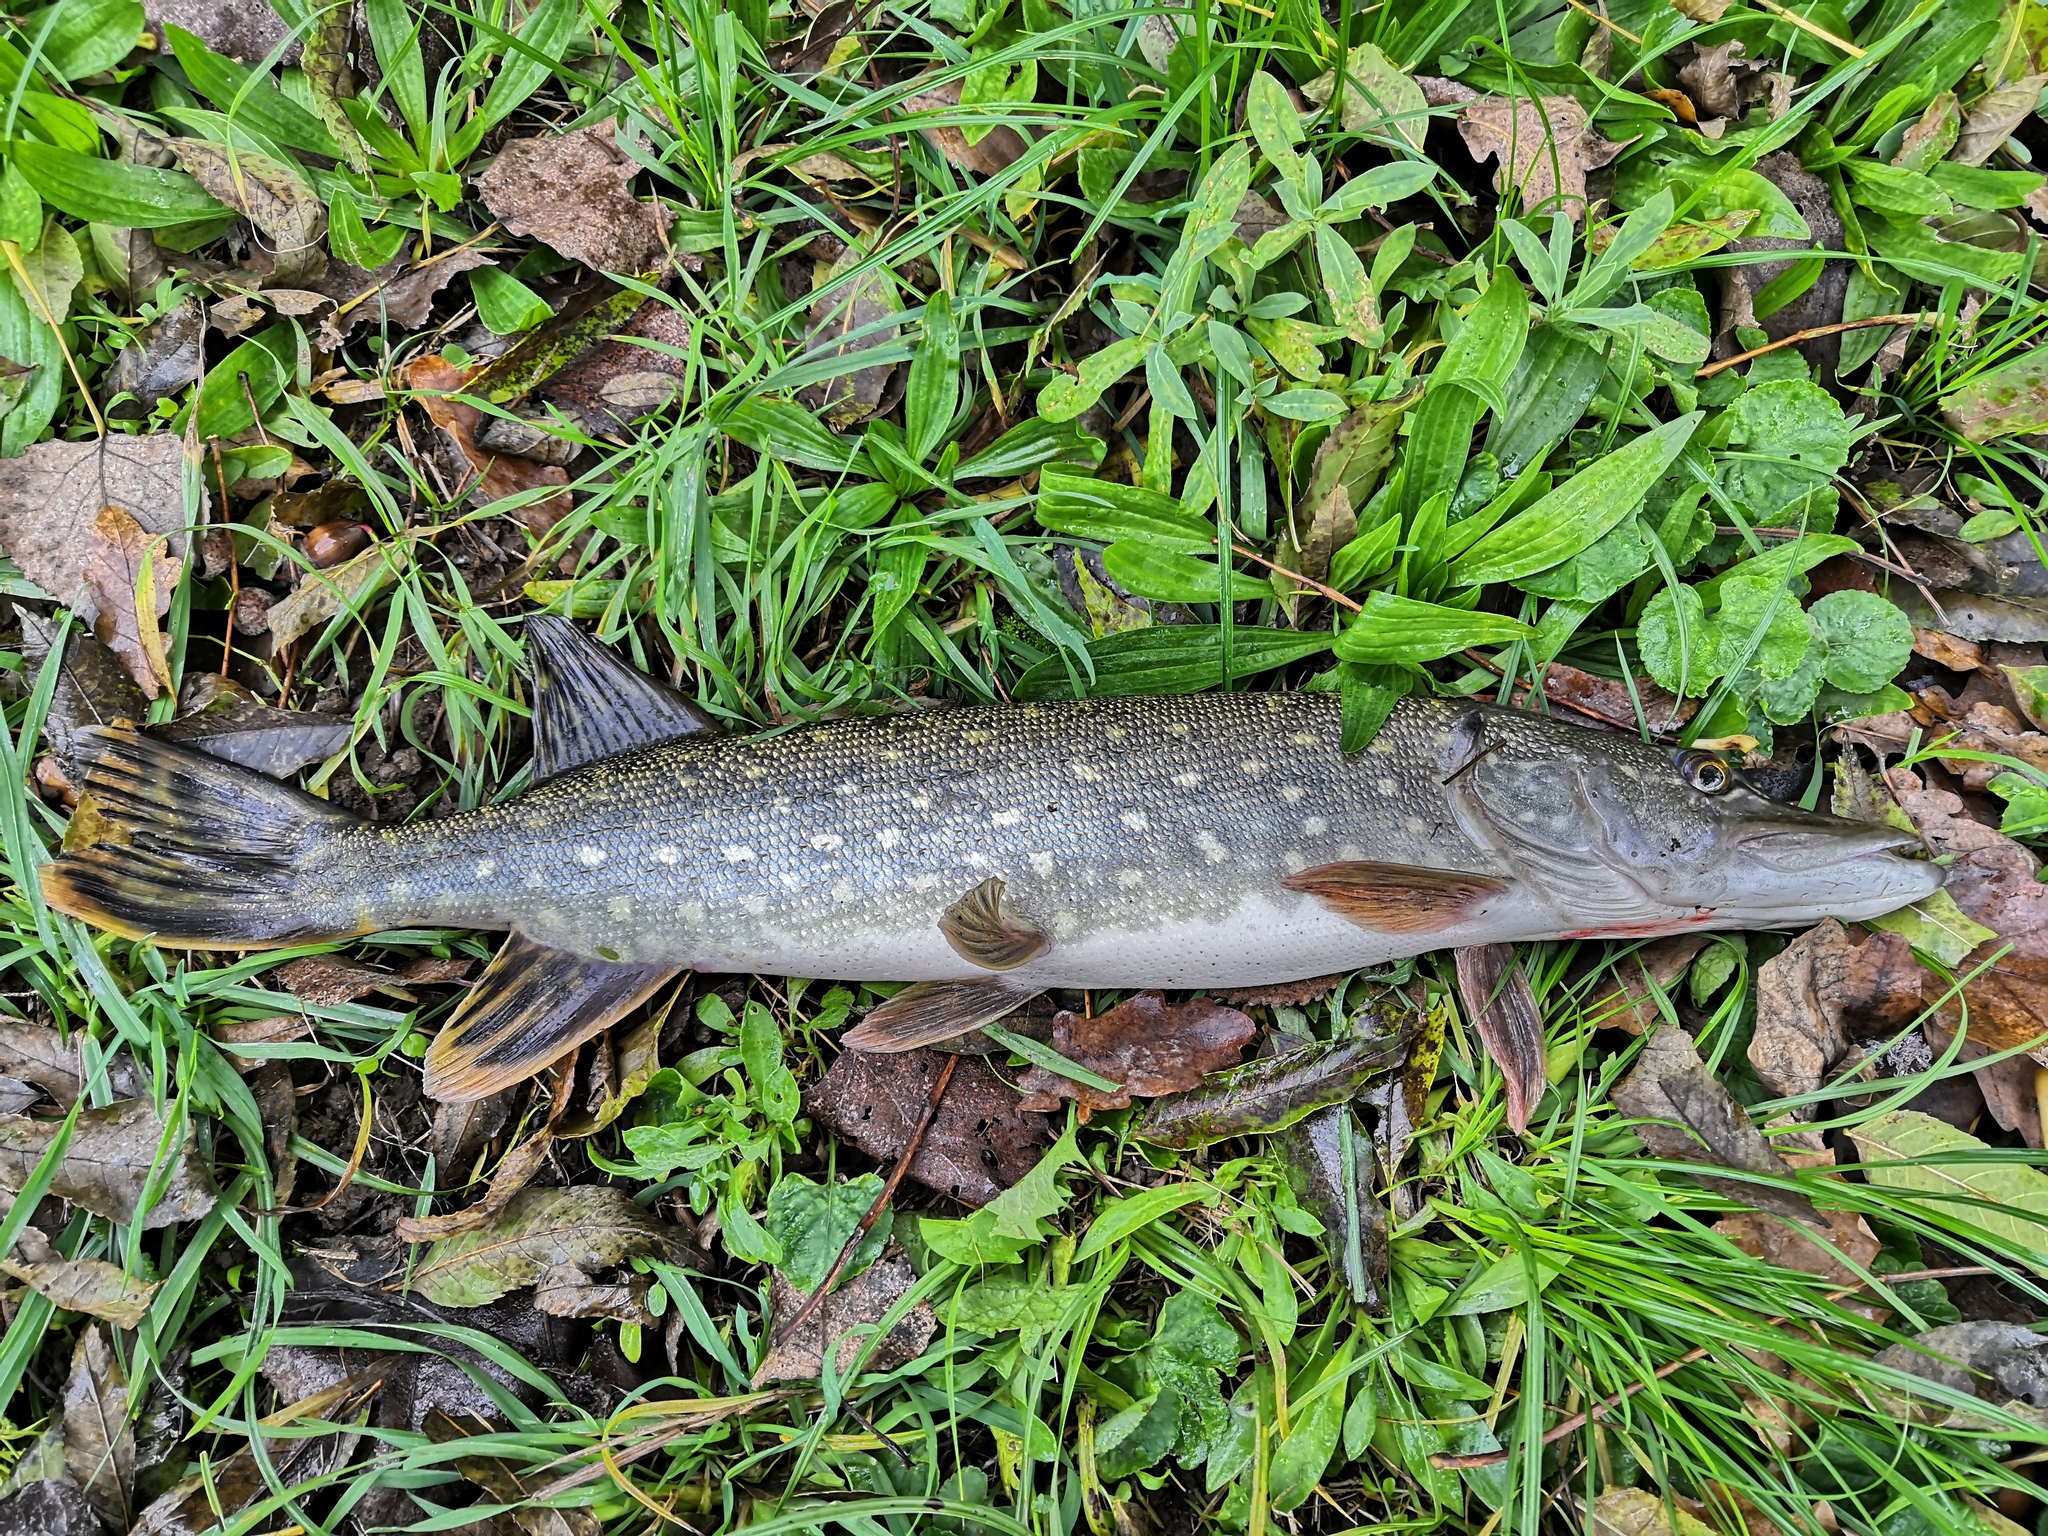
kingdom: Animalia
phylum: Chordata
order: Esociformes
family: Esocidae
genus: Esox
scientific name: Esox lucius
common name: Northern pike
